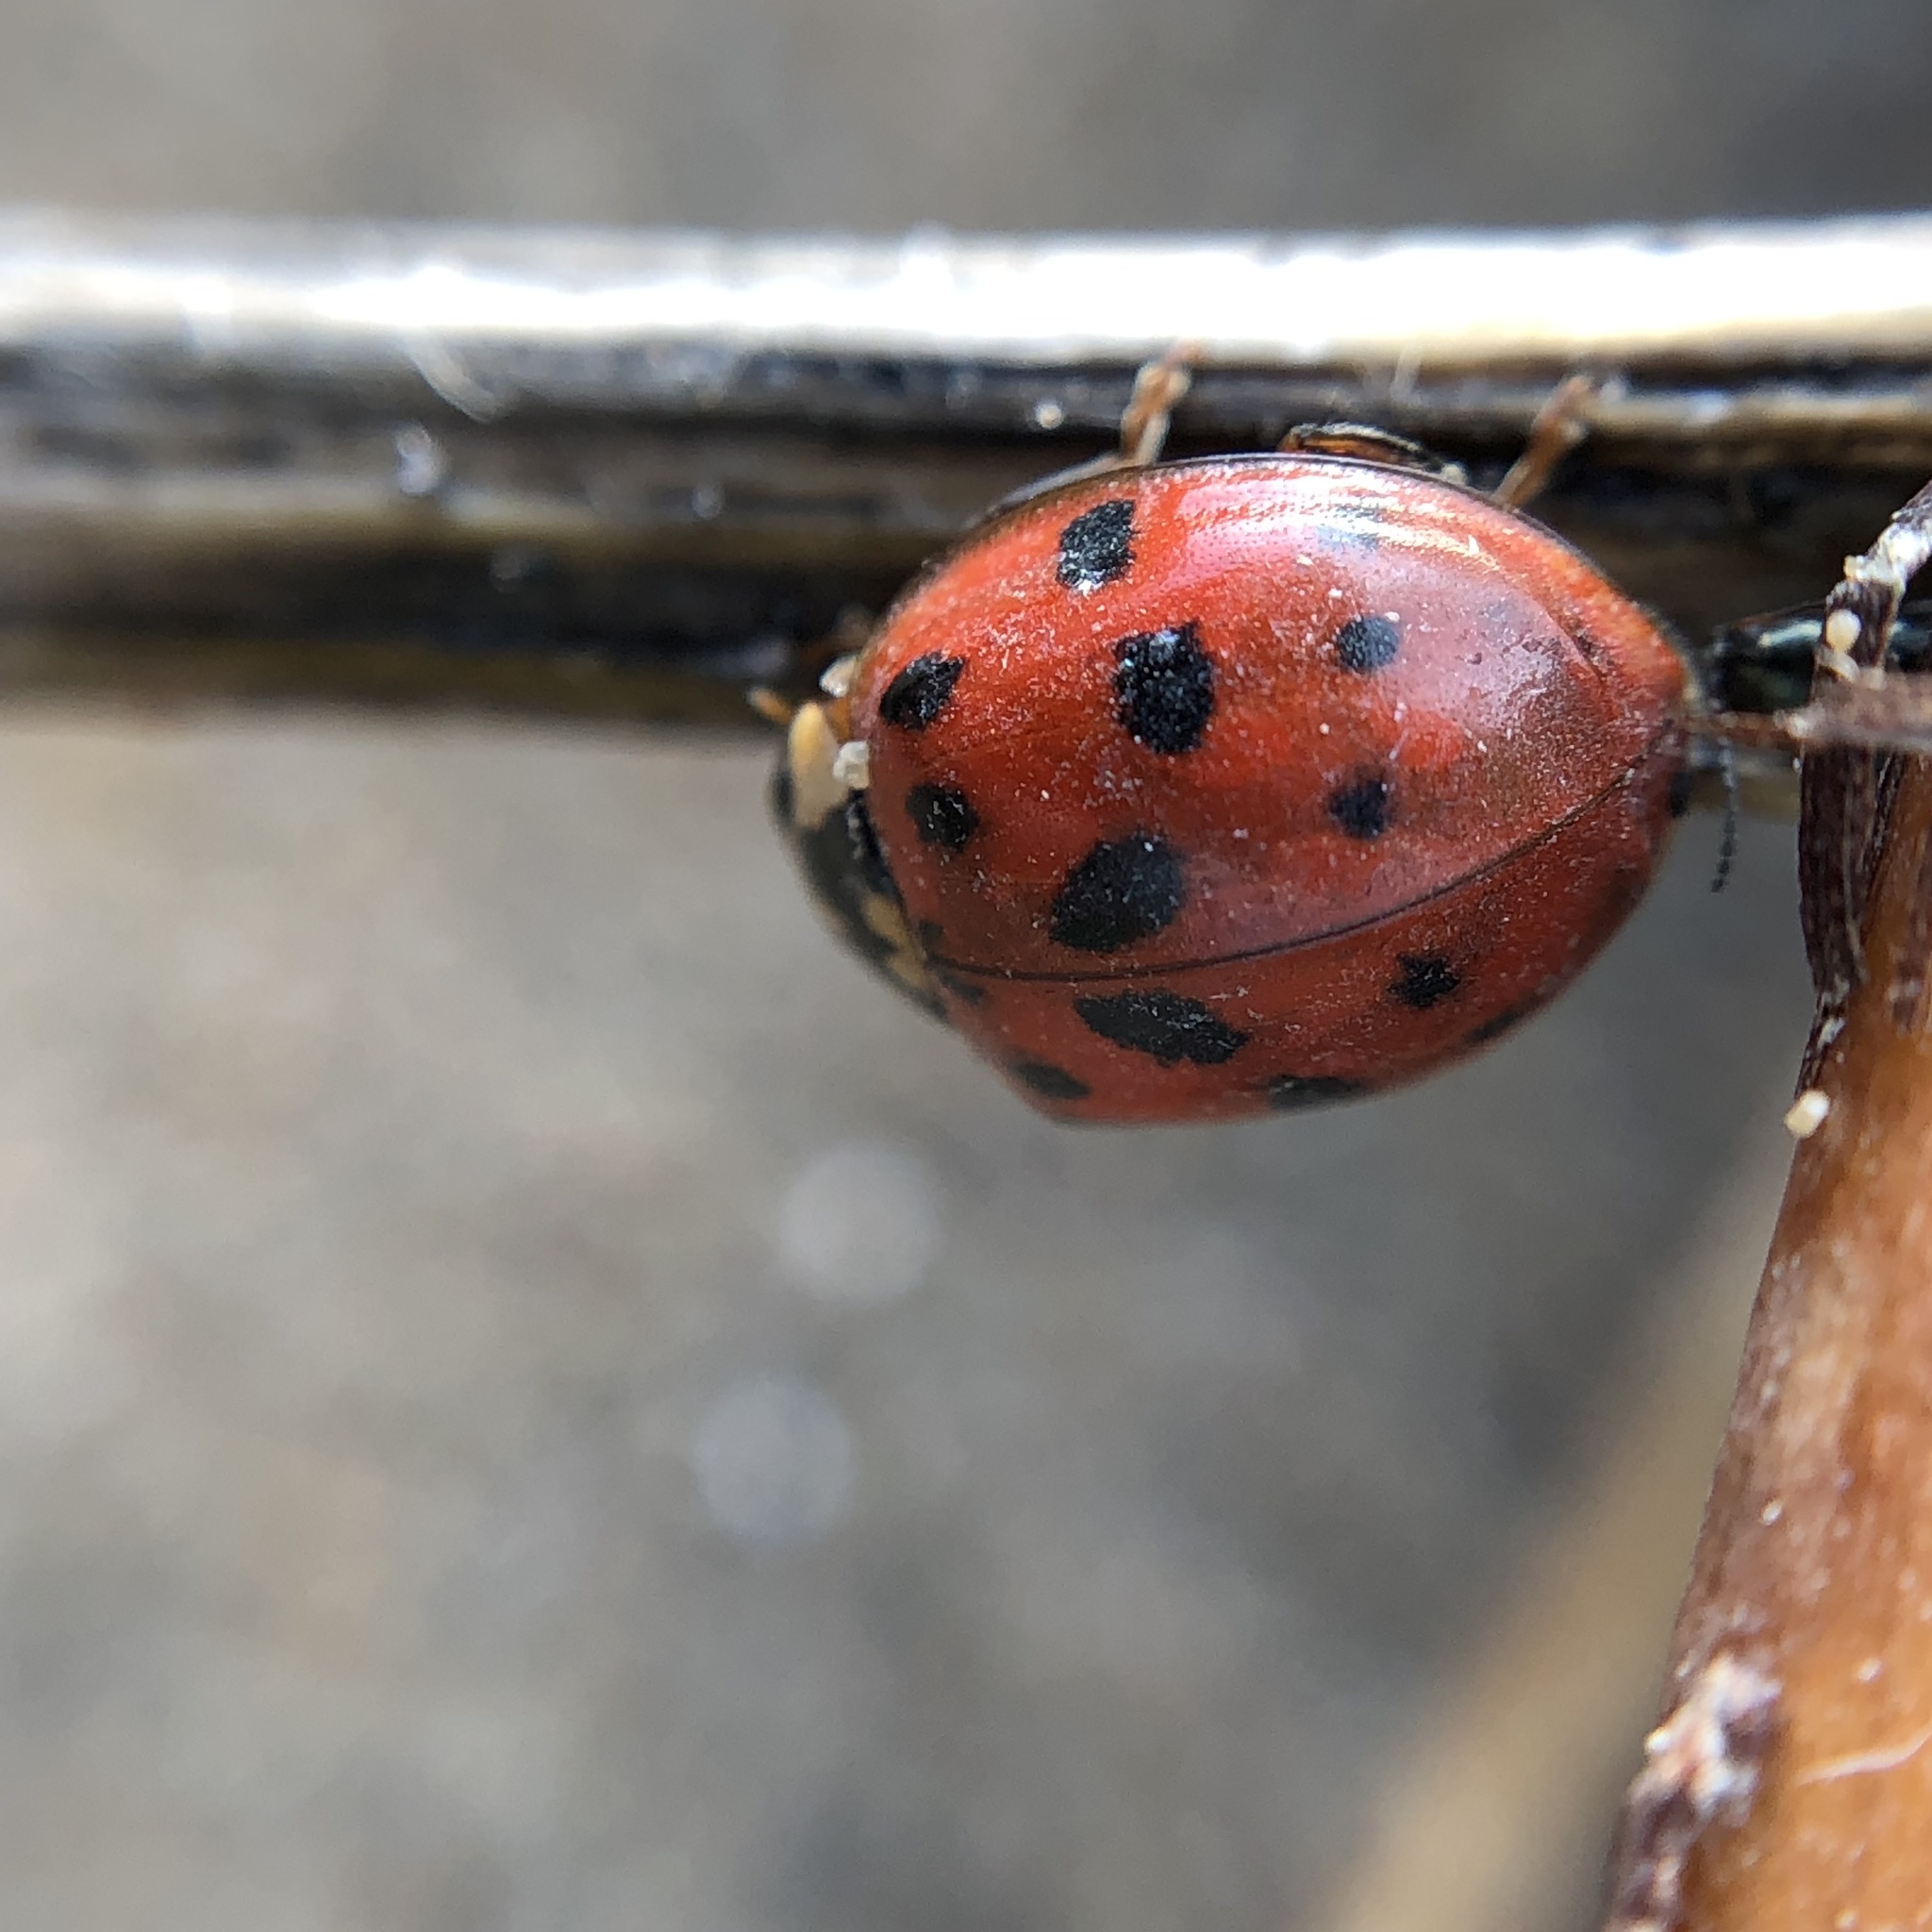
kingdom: Animalia
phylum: Arthropoda
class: Insecta
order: Coleoptera
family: Coccinellidae
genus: Harmonia
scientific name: Harmonia axyridis
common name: Harlequin ladybird
